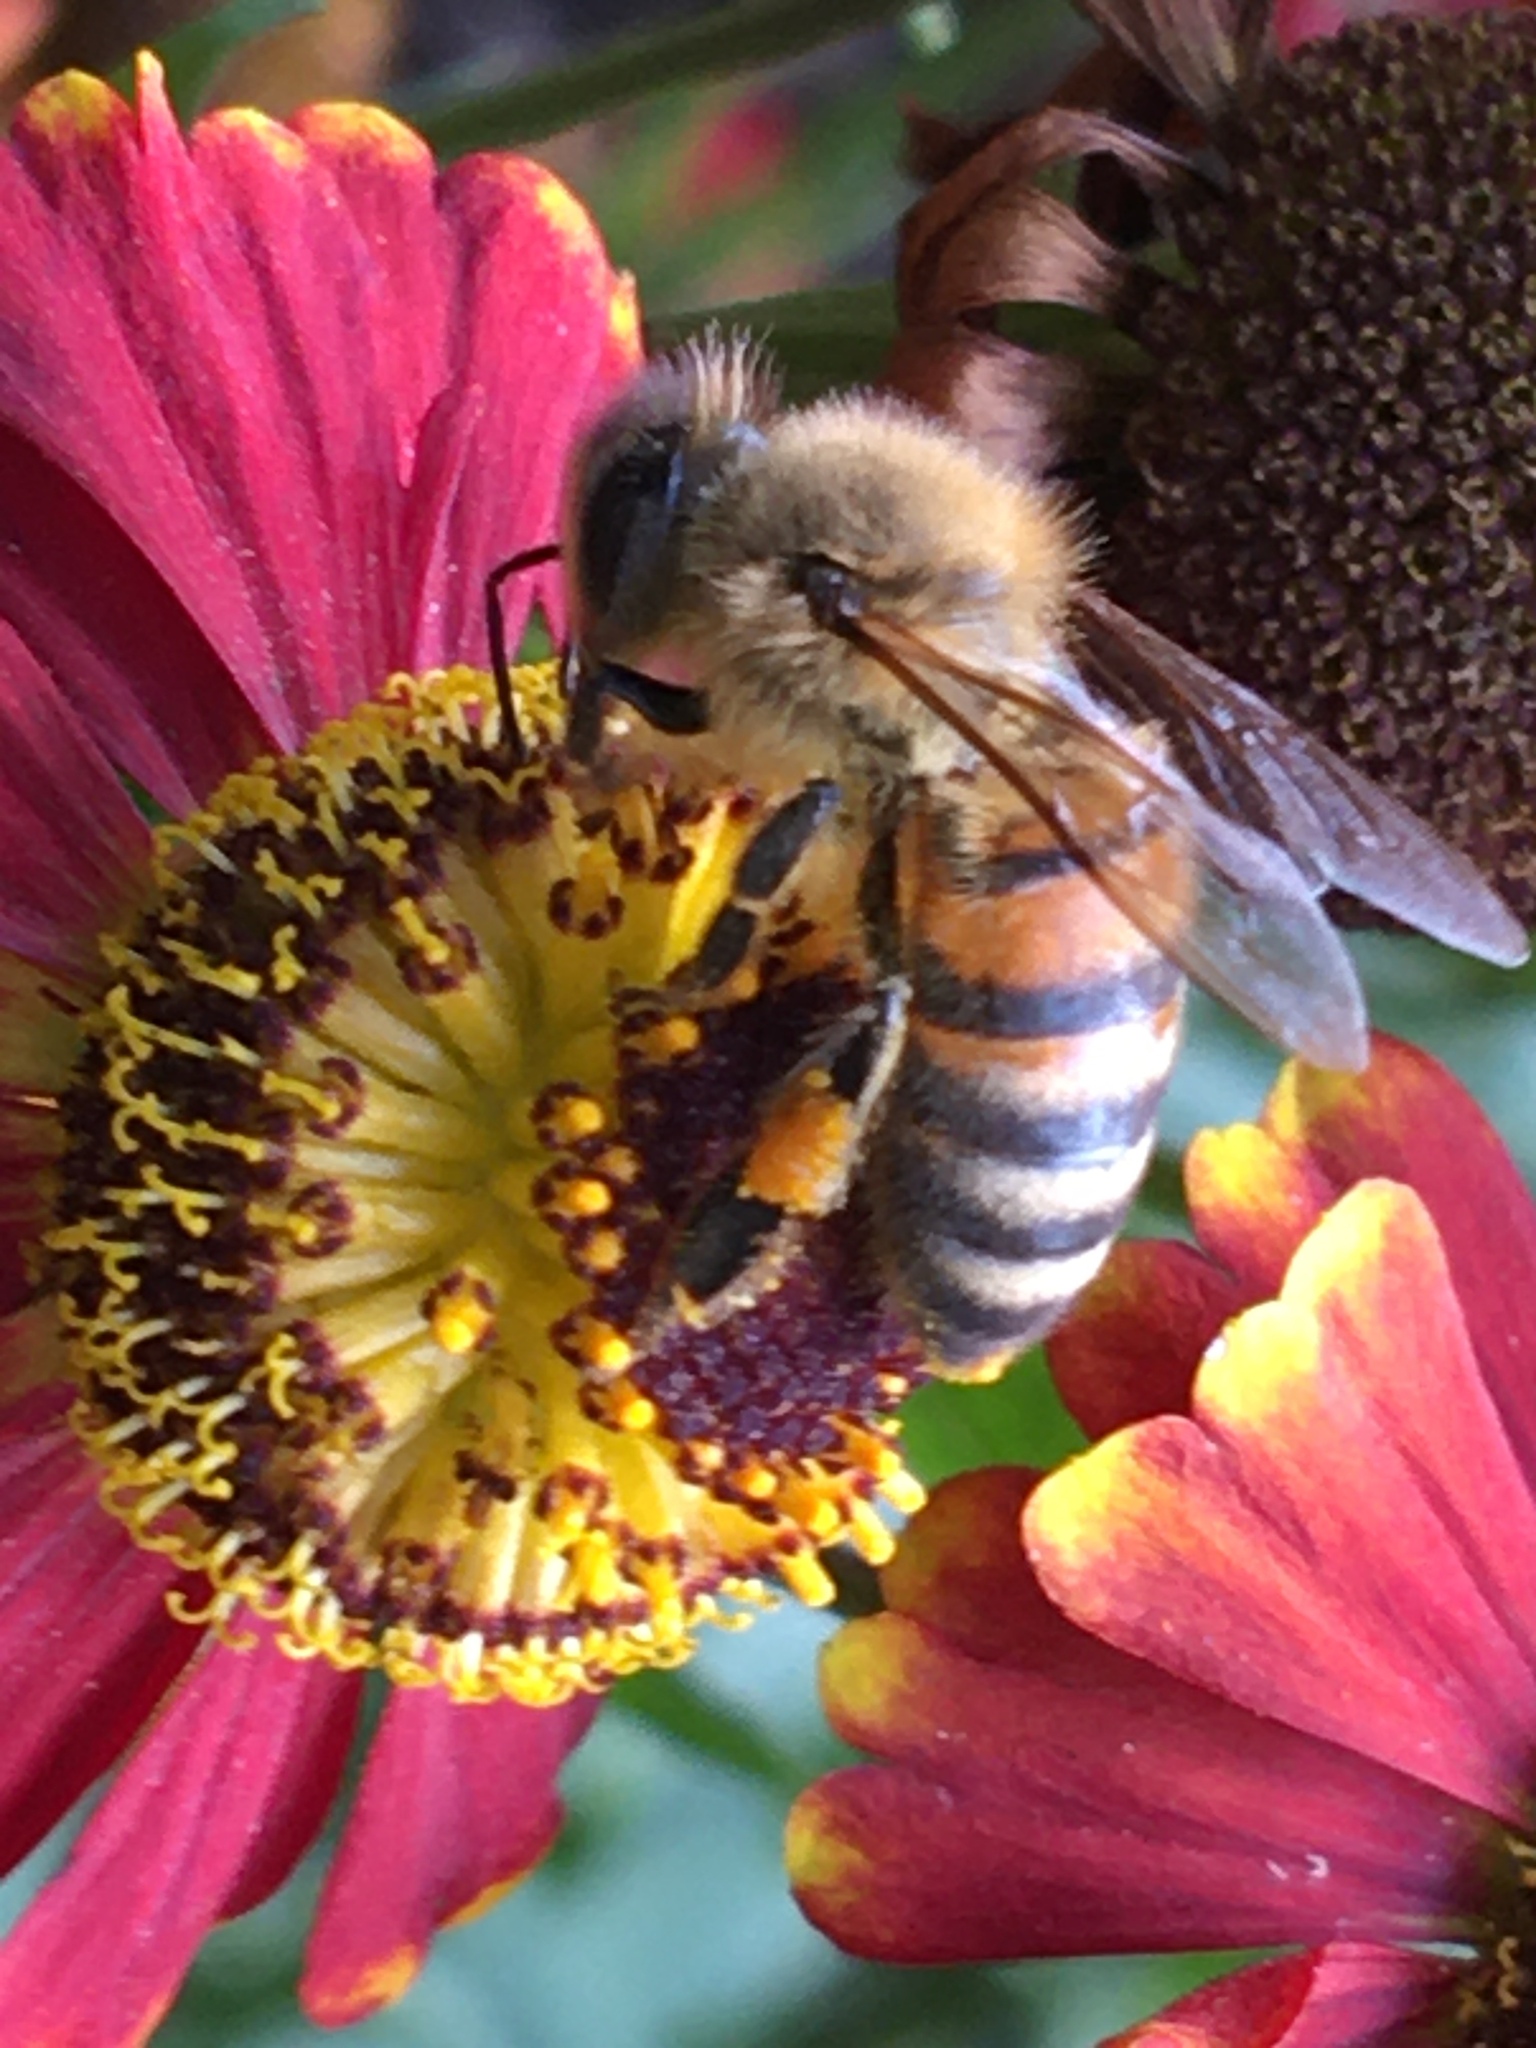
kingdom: Animalia
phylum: Arthropoda
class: Insecta
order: Hymenoptera
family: Apidae
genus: Apis
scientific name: Apis mellifera
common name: Honey bee
